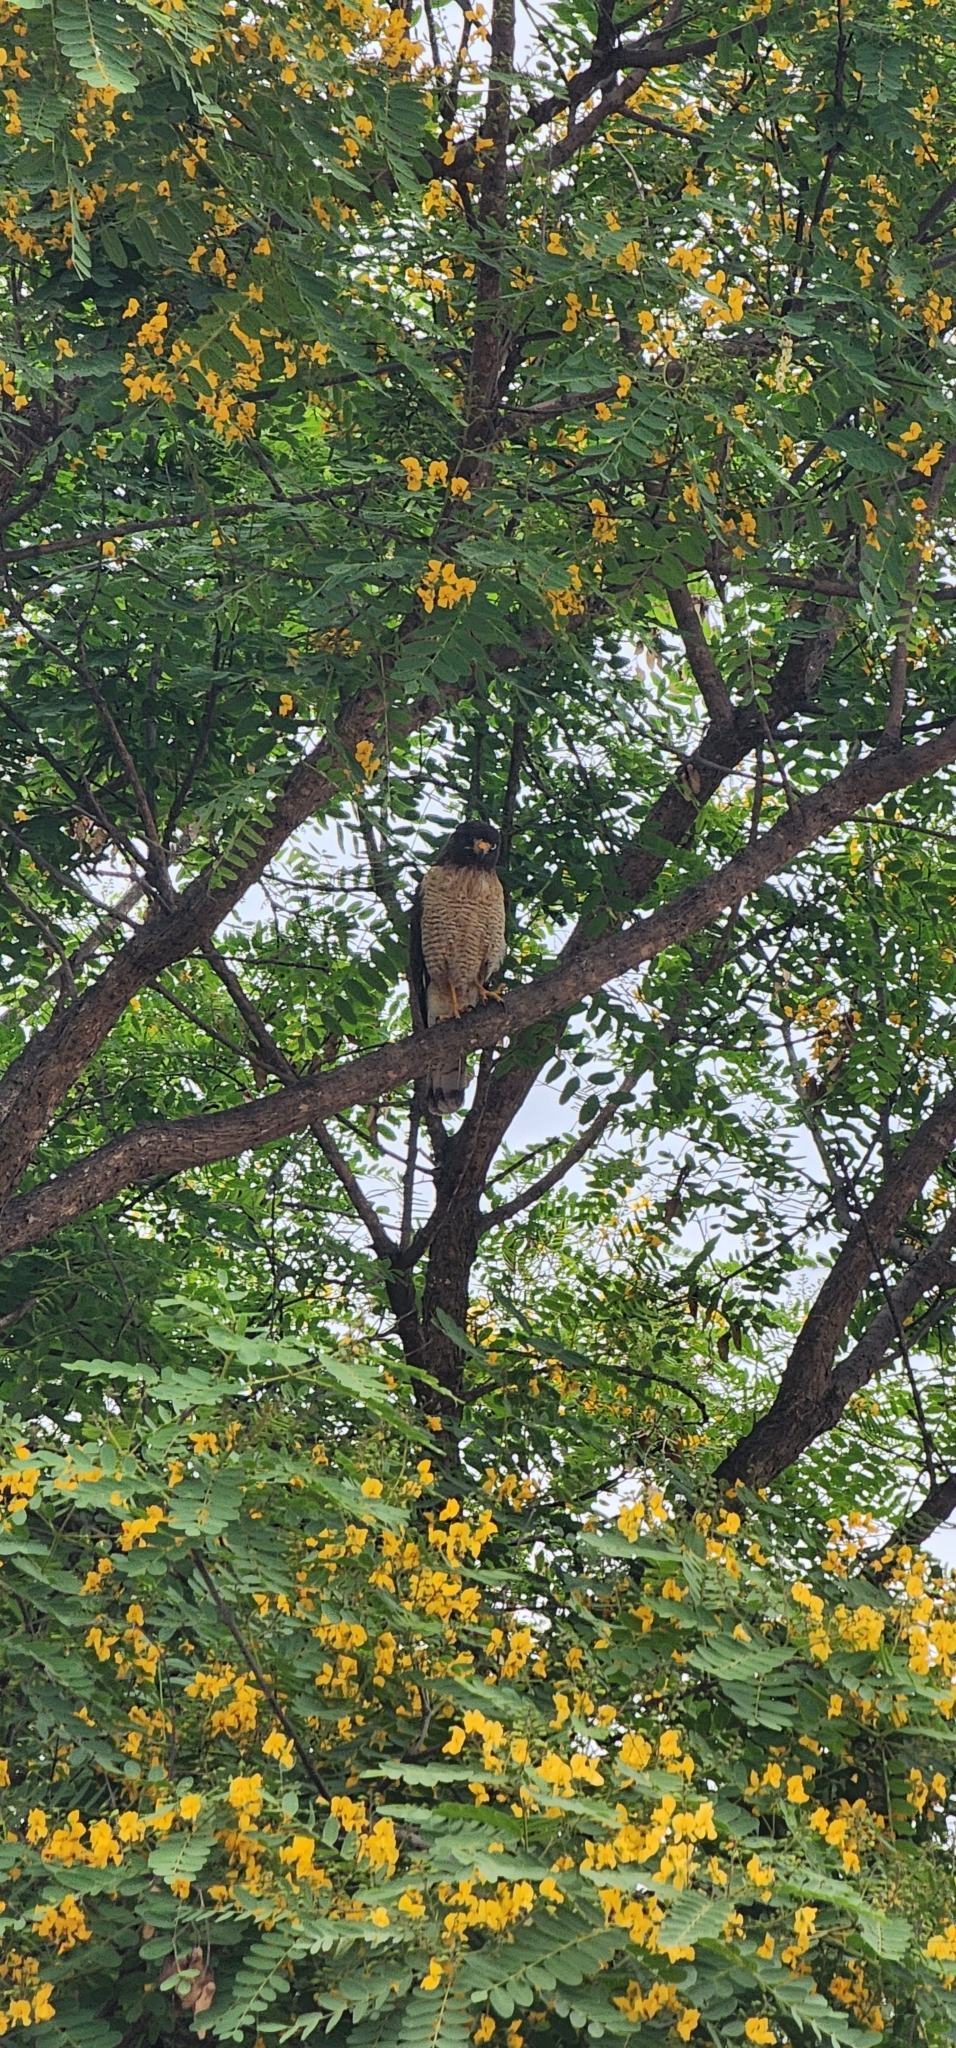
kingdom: Animalia
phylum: Chordata
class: Aves
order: Accipitriformes
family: Accipitridae
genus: Rupornis
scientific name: Rupornis magnirostris
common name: Roadside hawk
